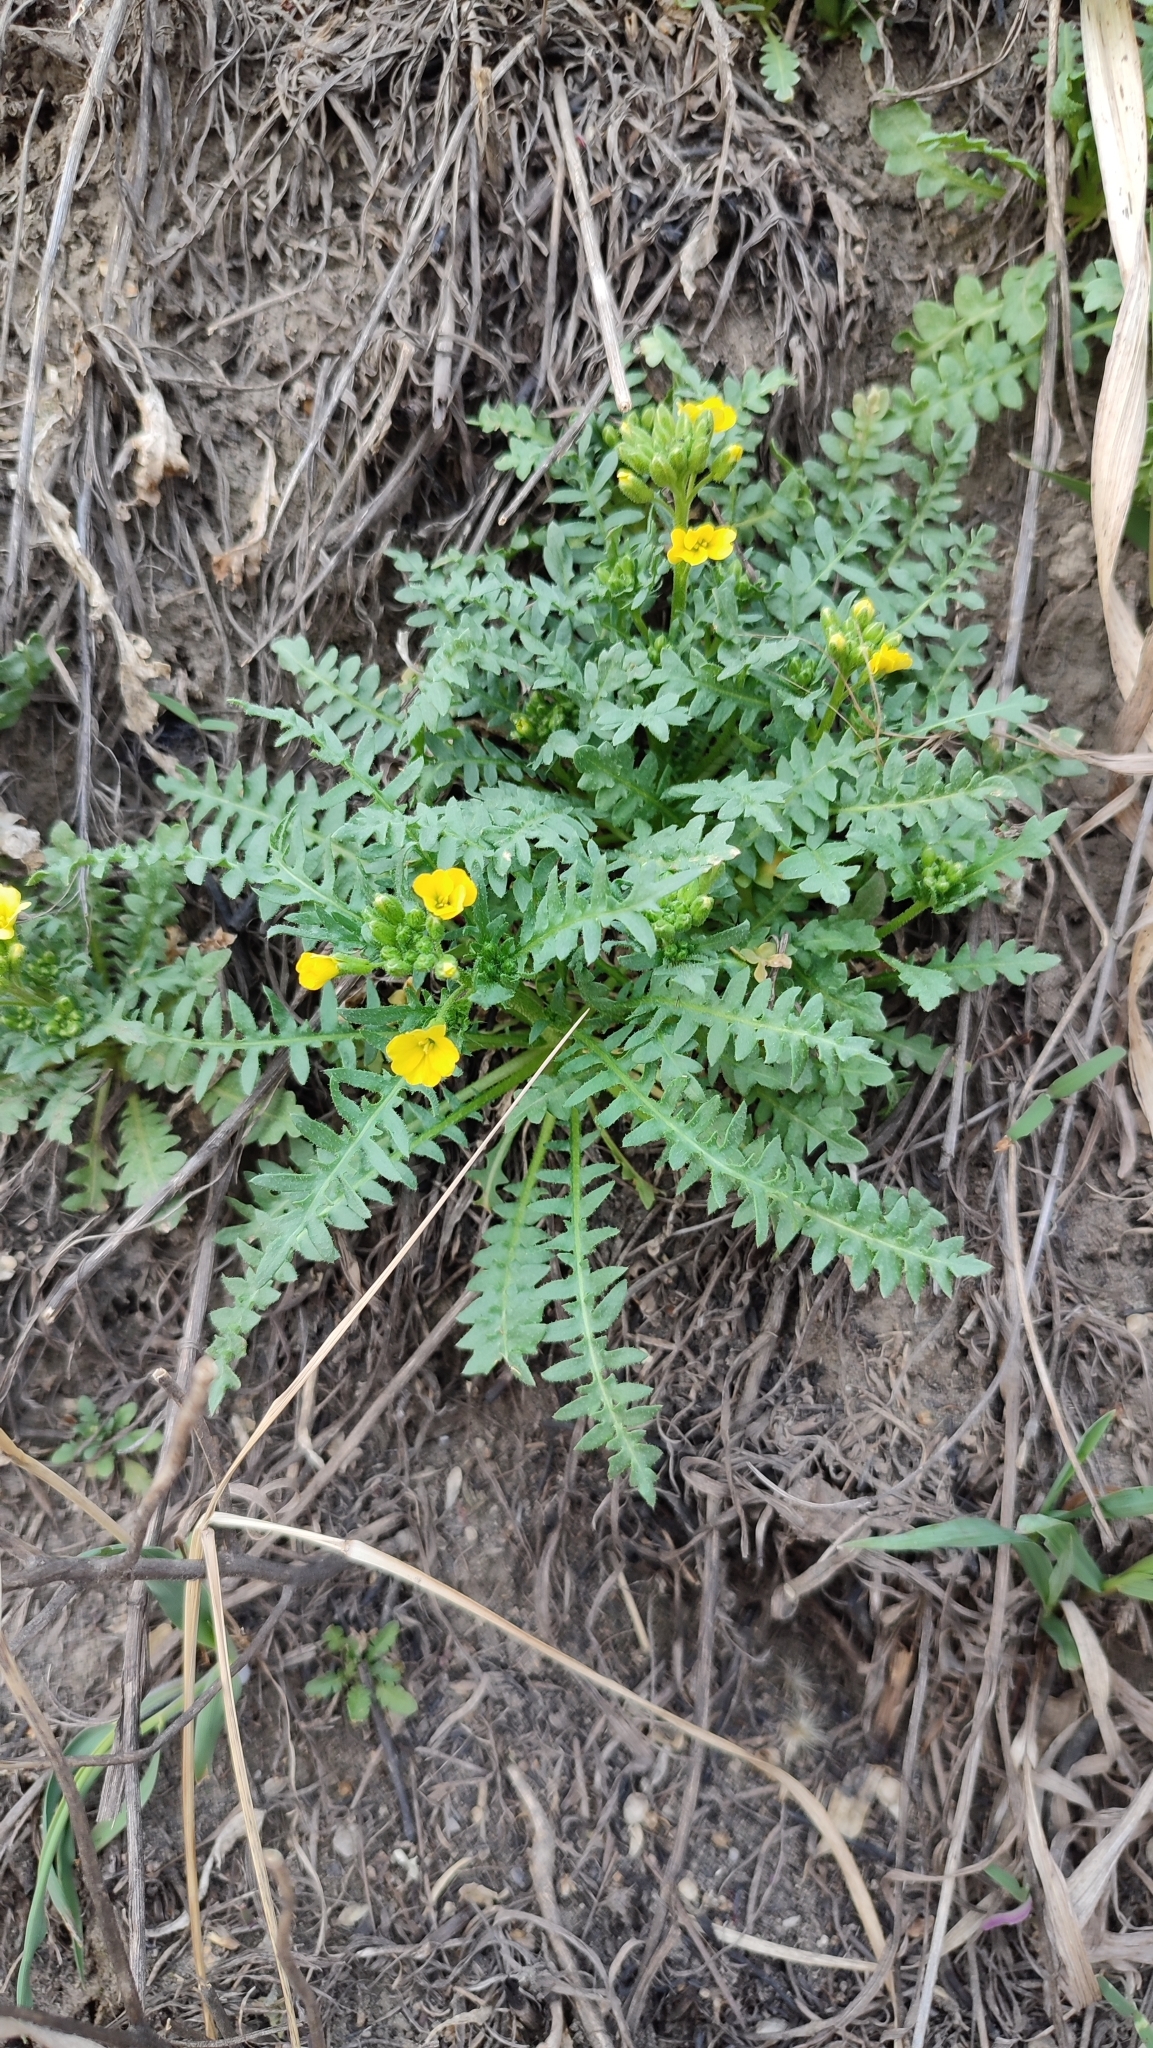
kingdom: Plantae
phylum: Tracheophyta
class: Magnoliopsida
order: Brassicales
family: Brassicaceae
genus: Chorispora
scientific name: Chorispora sibirica
